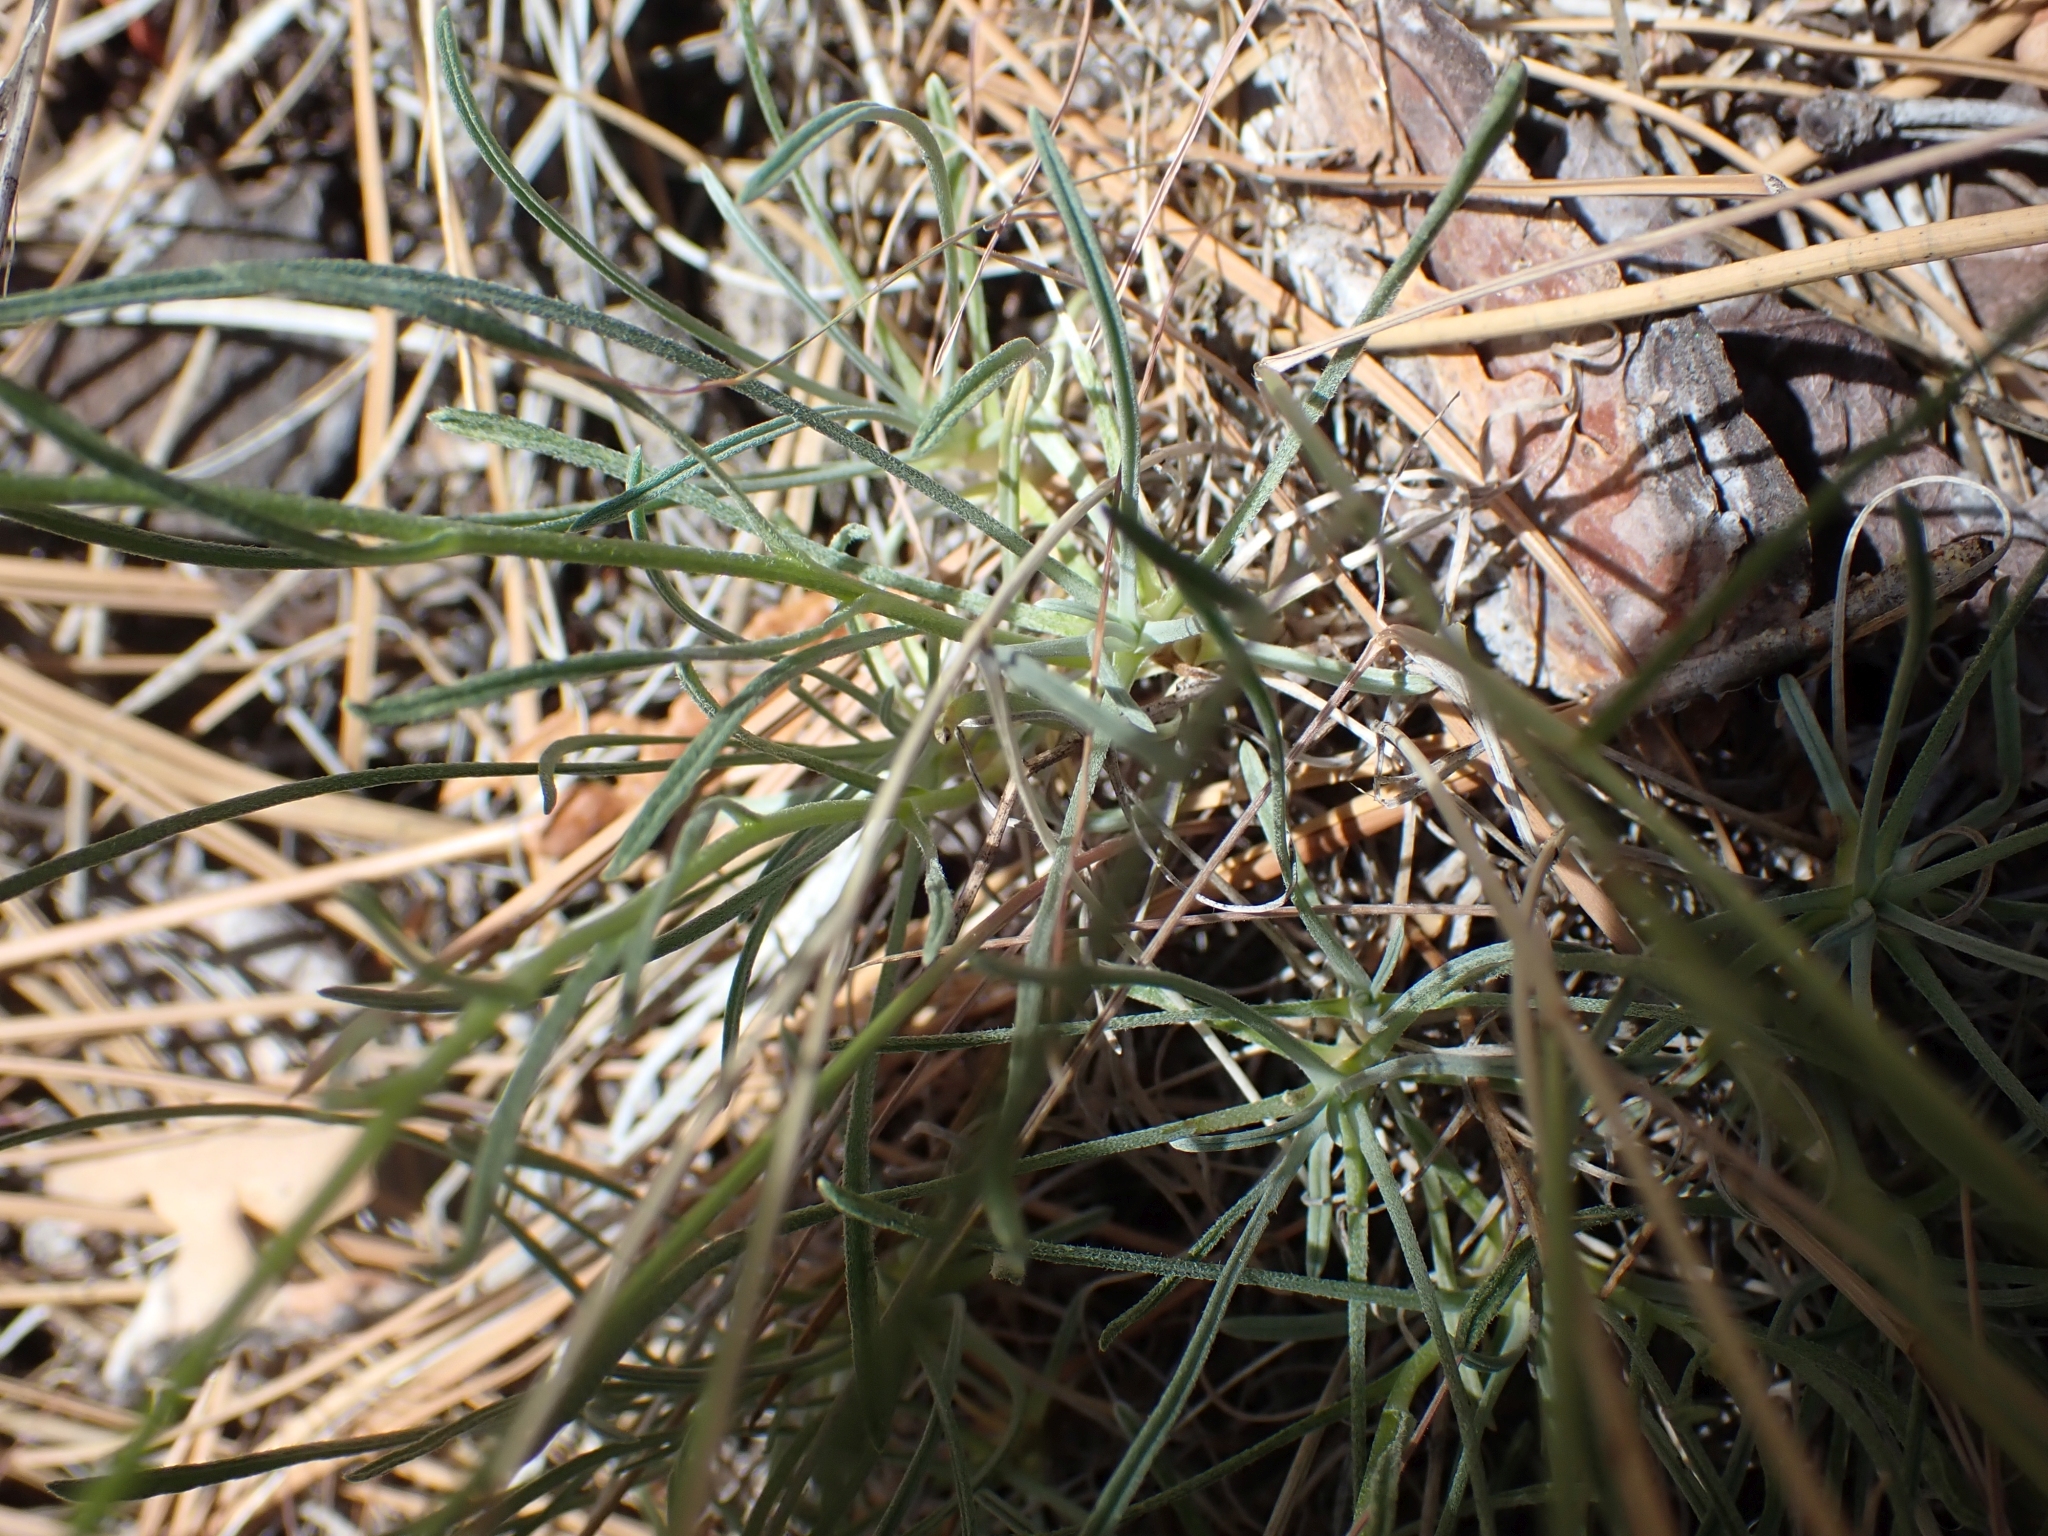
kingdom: Plantae
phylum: Tracheophyta
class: Magnoliopsida
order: Asterales
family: Asteraceae
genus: Erigeron
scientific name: Erigeron linearis
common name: Desert yellow fleabane
